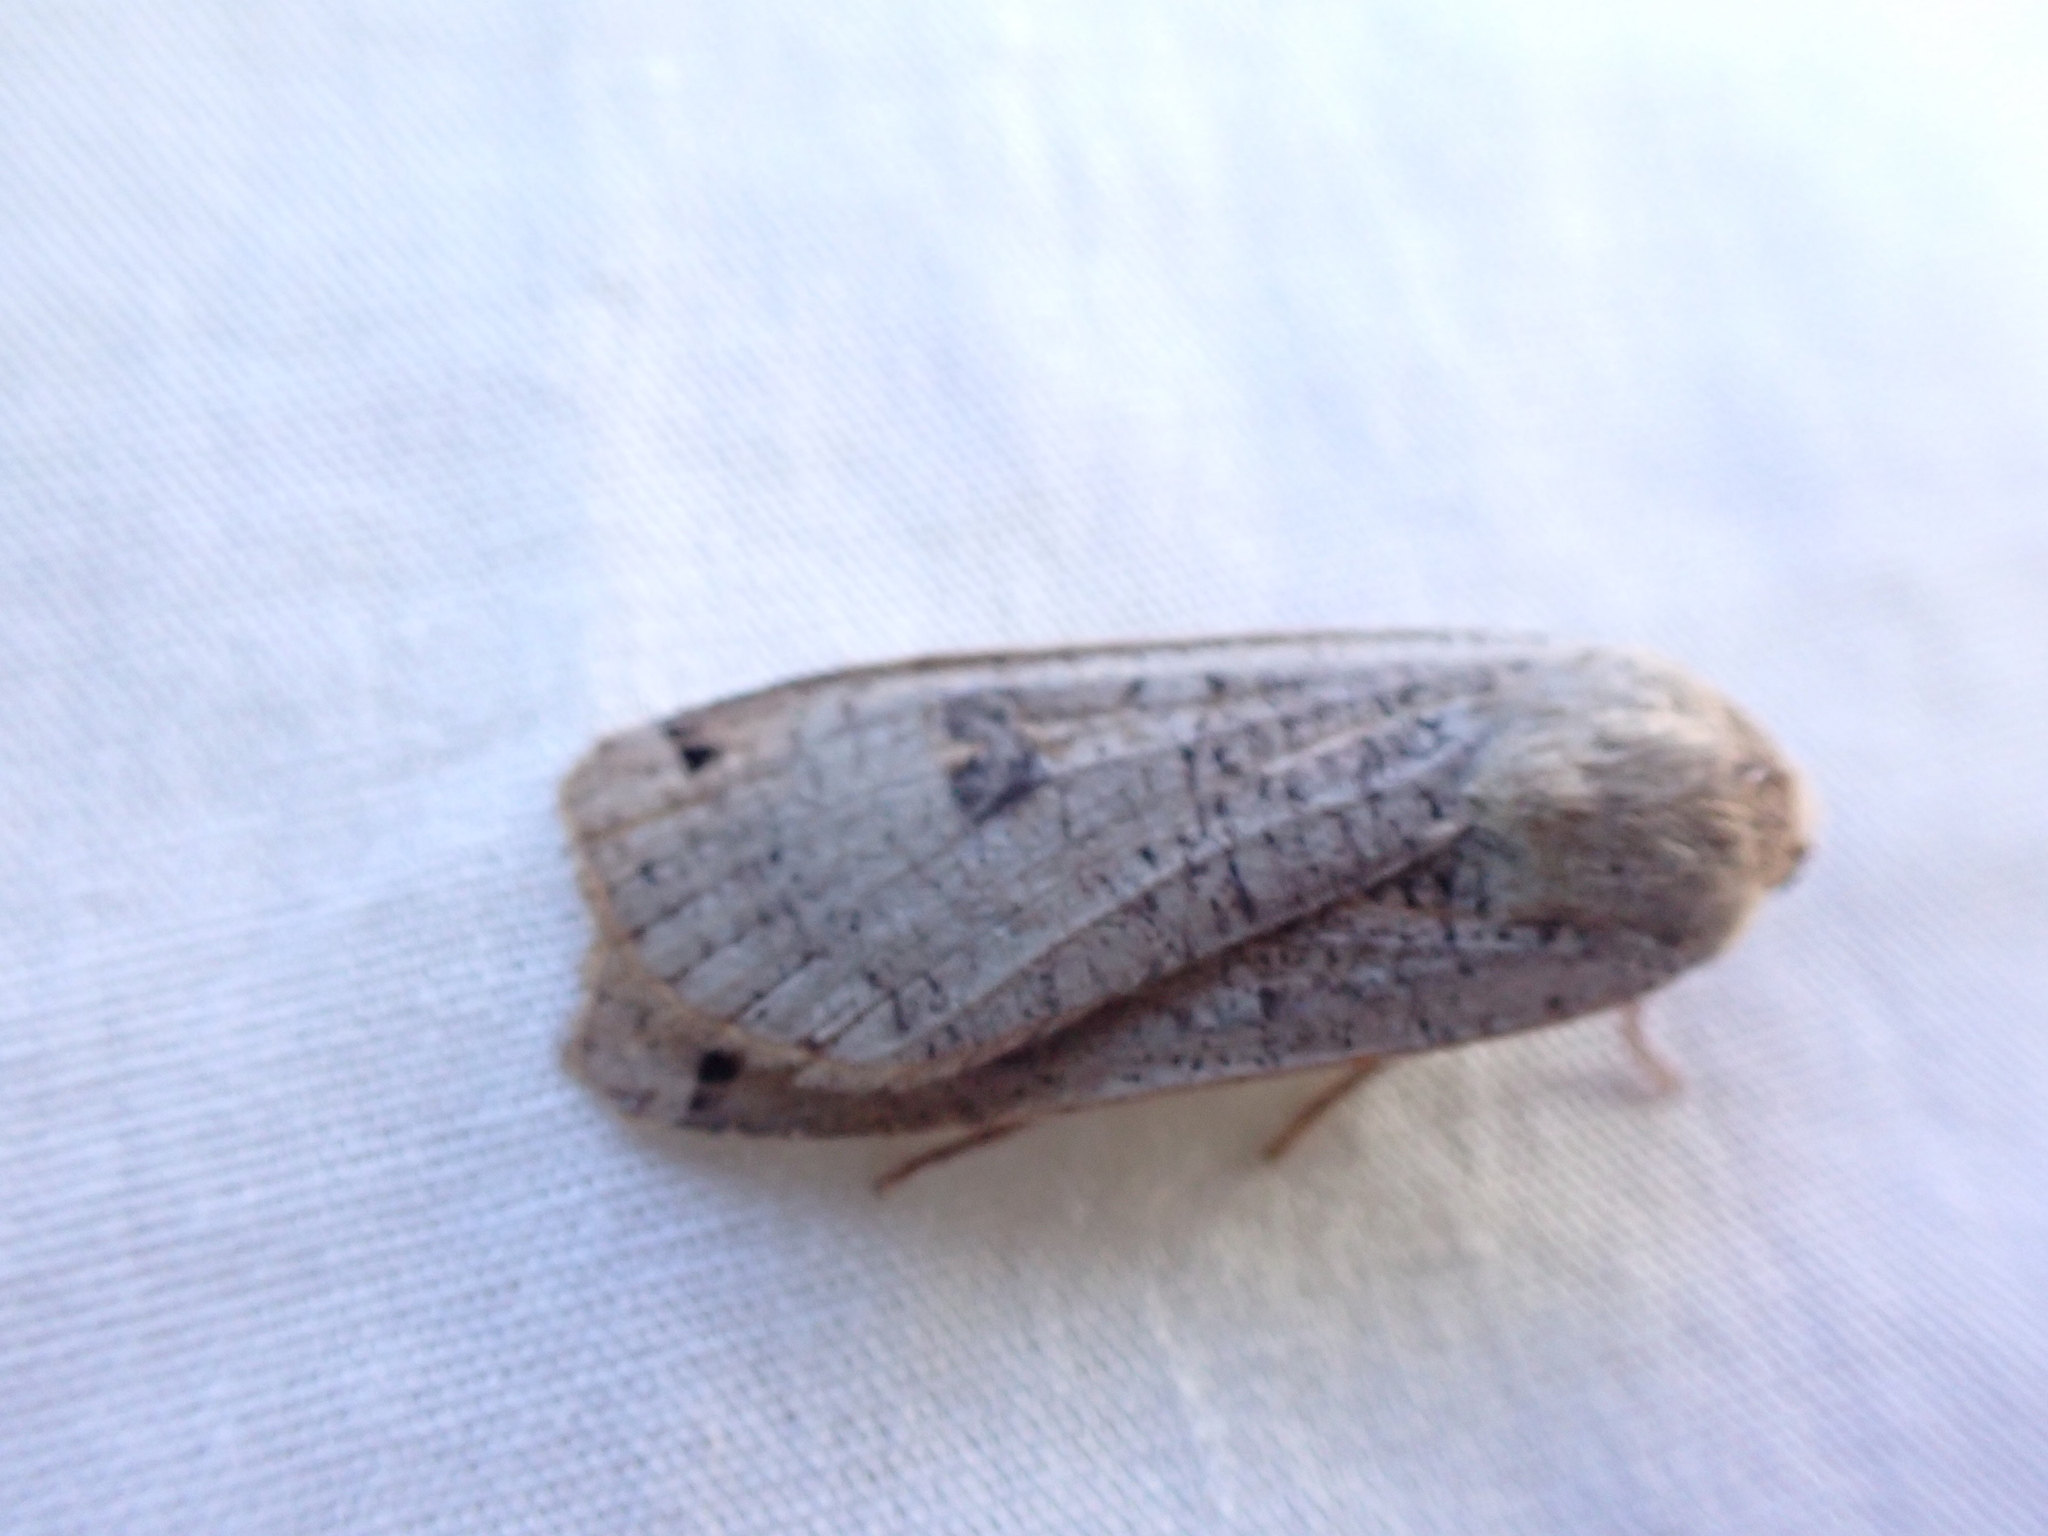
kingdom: Animalia
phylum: Arthropoda
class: Insecta
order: Lepidoptera
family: Noctuidae
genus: Noctua
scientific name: Noctua pronuba
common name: Large yellow underwing
